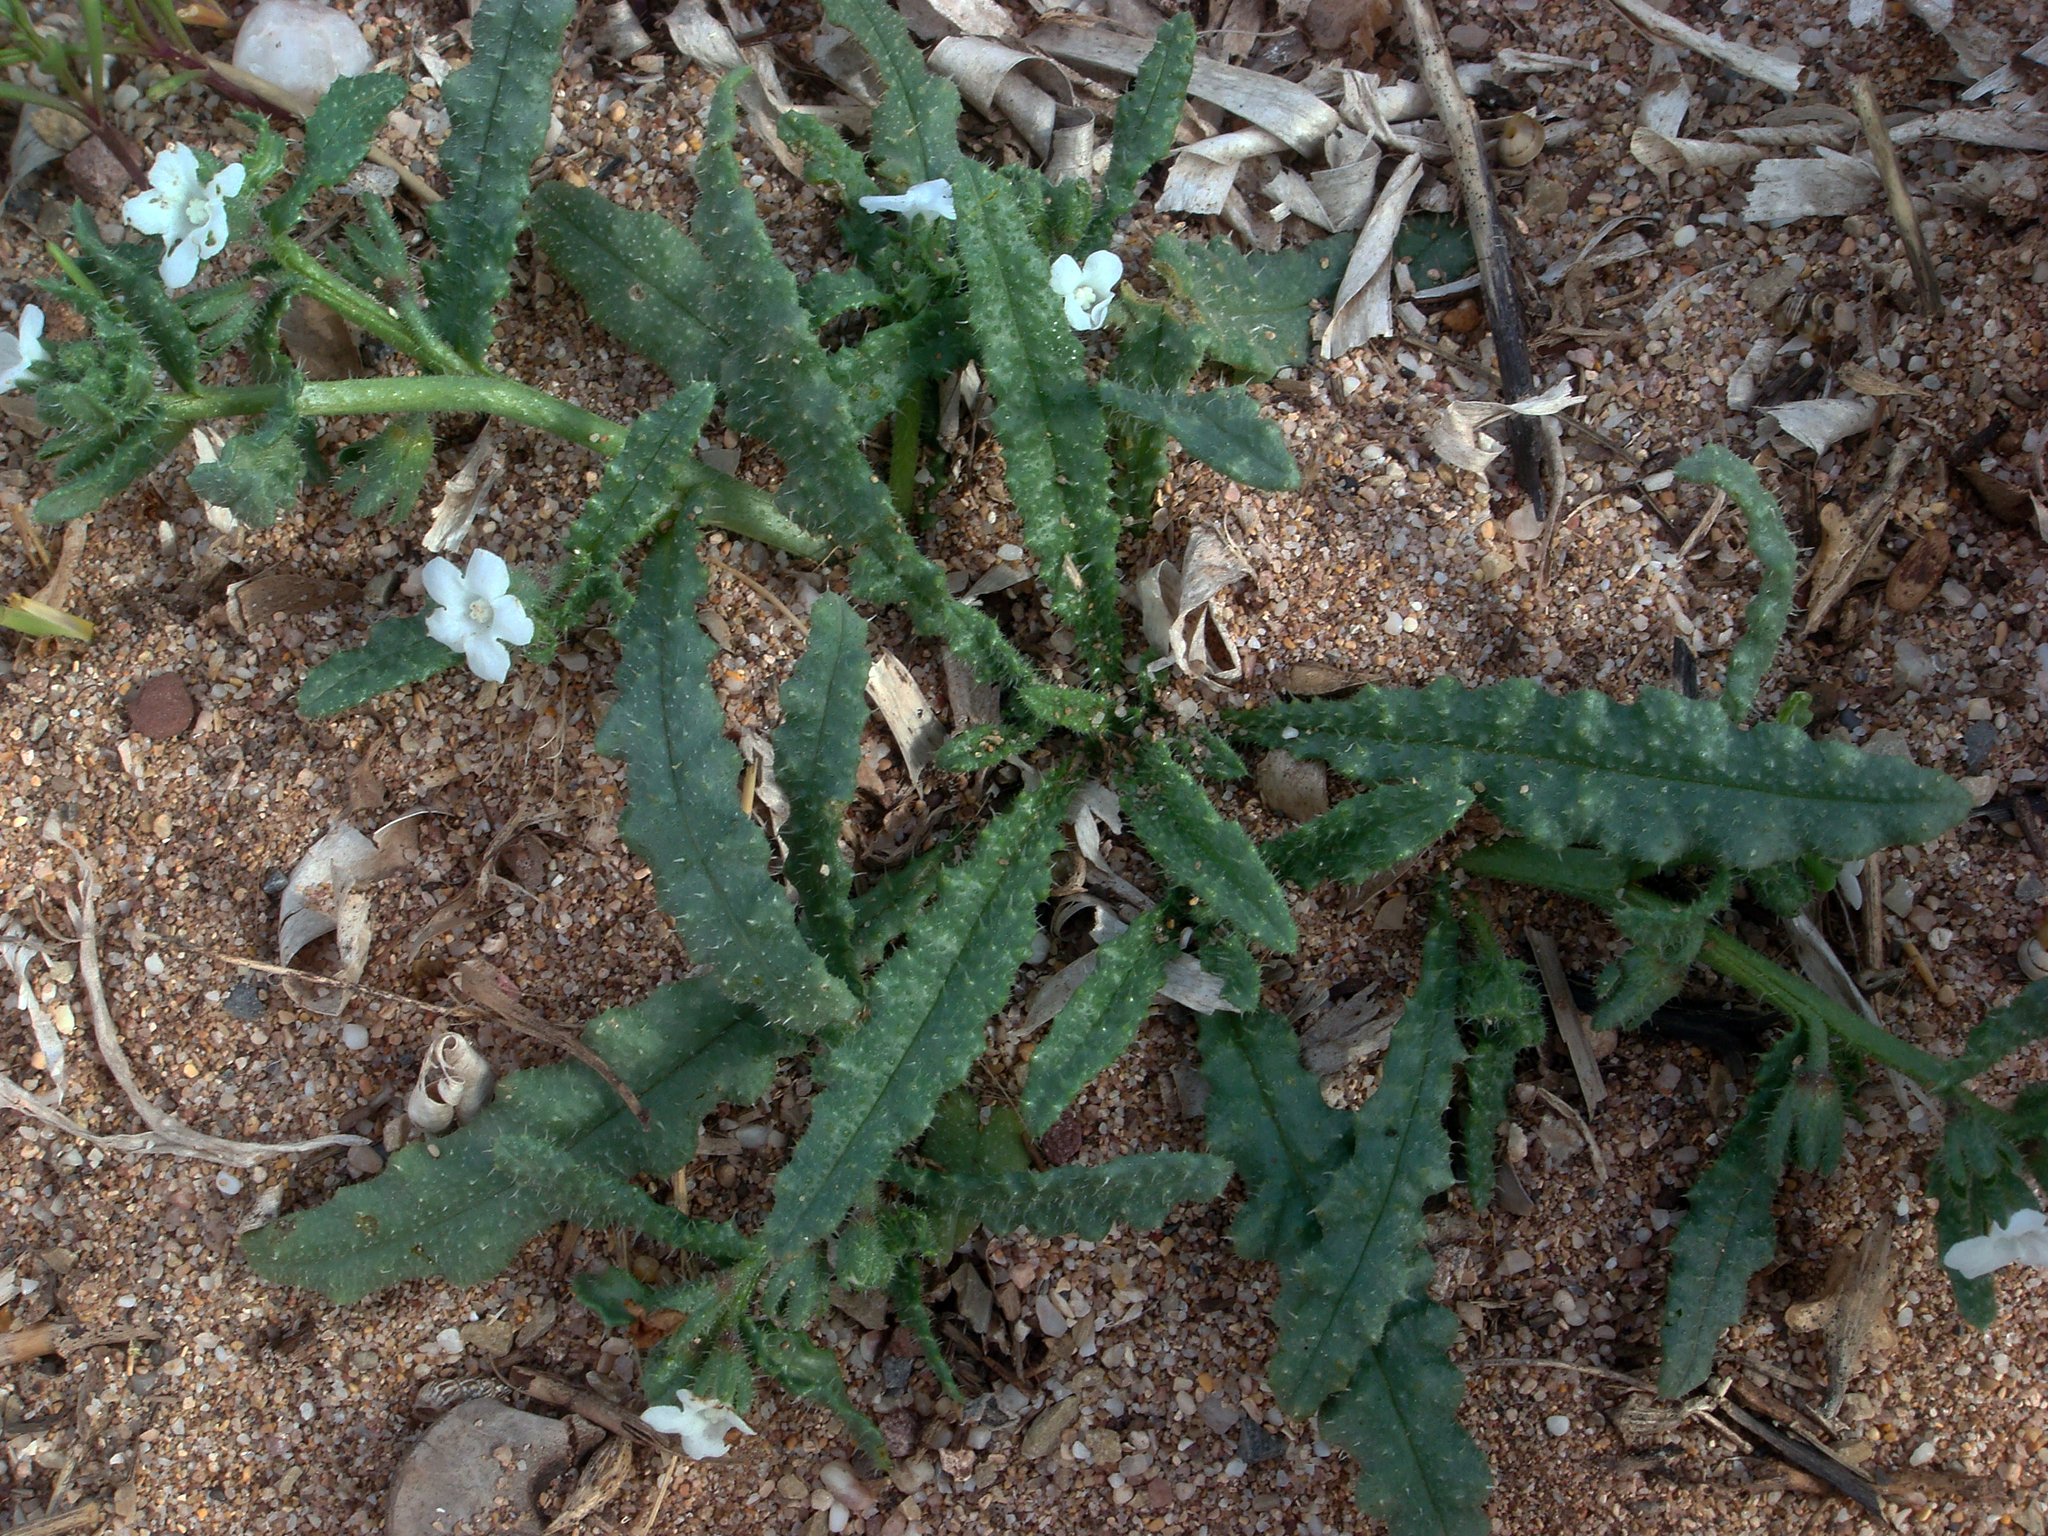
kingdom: Plantae
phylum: Tracheophyta
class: Magnoliopsida
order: Boraginales
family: Boraginaceae
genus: Anchusa
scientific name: Anchusa crispa
